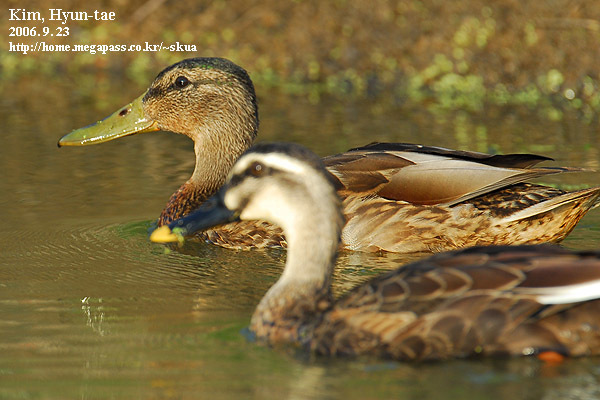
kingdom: Animalia
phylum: Chordata
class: Aves
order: Anseriformes
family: Anatidae
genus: Anas
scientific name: Anas zonorhyncha
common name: Eastern spot-billed duck
